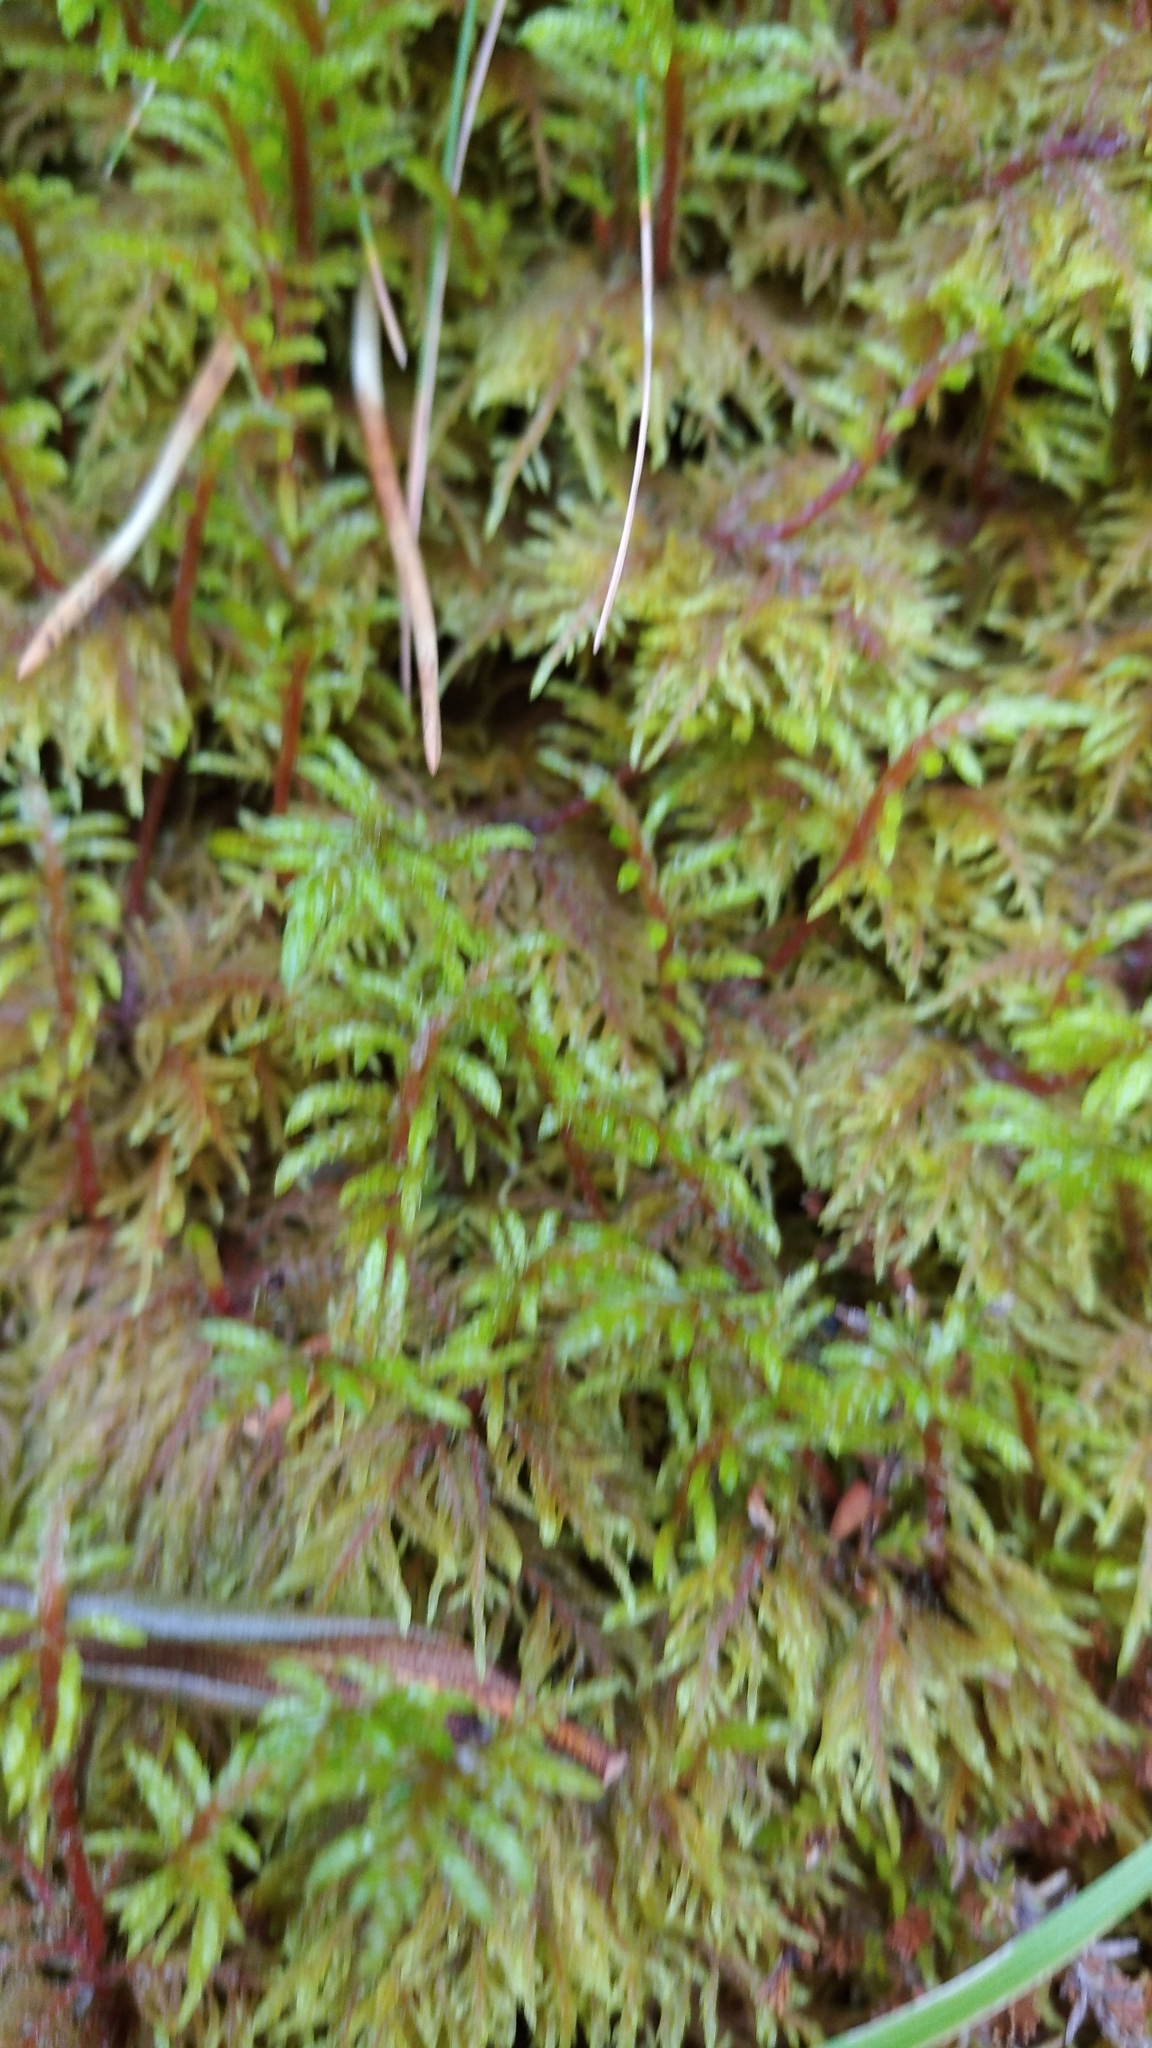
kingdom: Plantae
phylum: Bryophyta
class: Bryopsida
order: Hypnales
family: Hylocomiaceae
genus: Hylocomium
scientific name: Hylocomium splendens
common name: Stairstep moss
